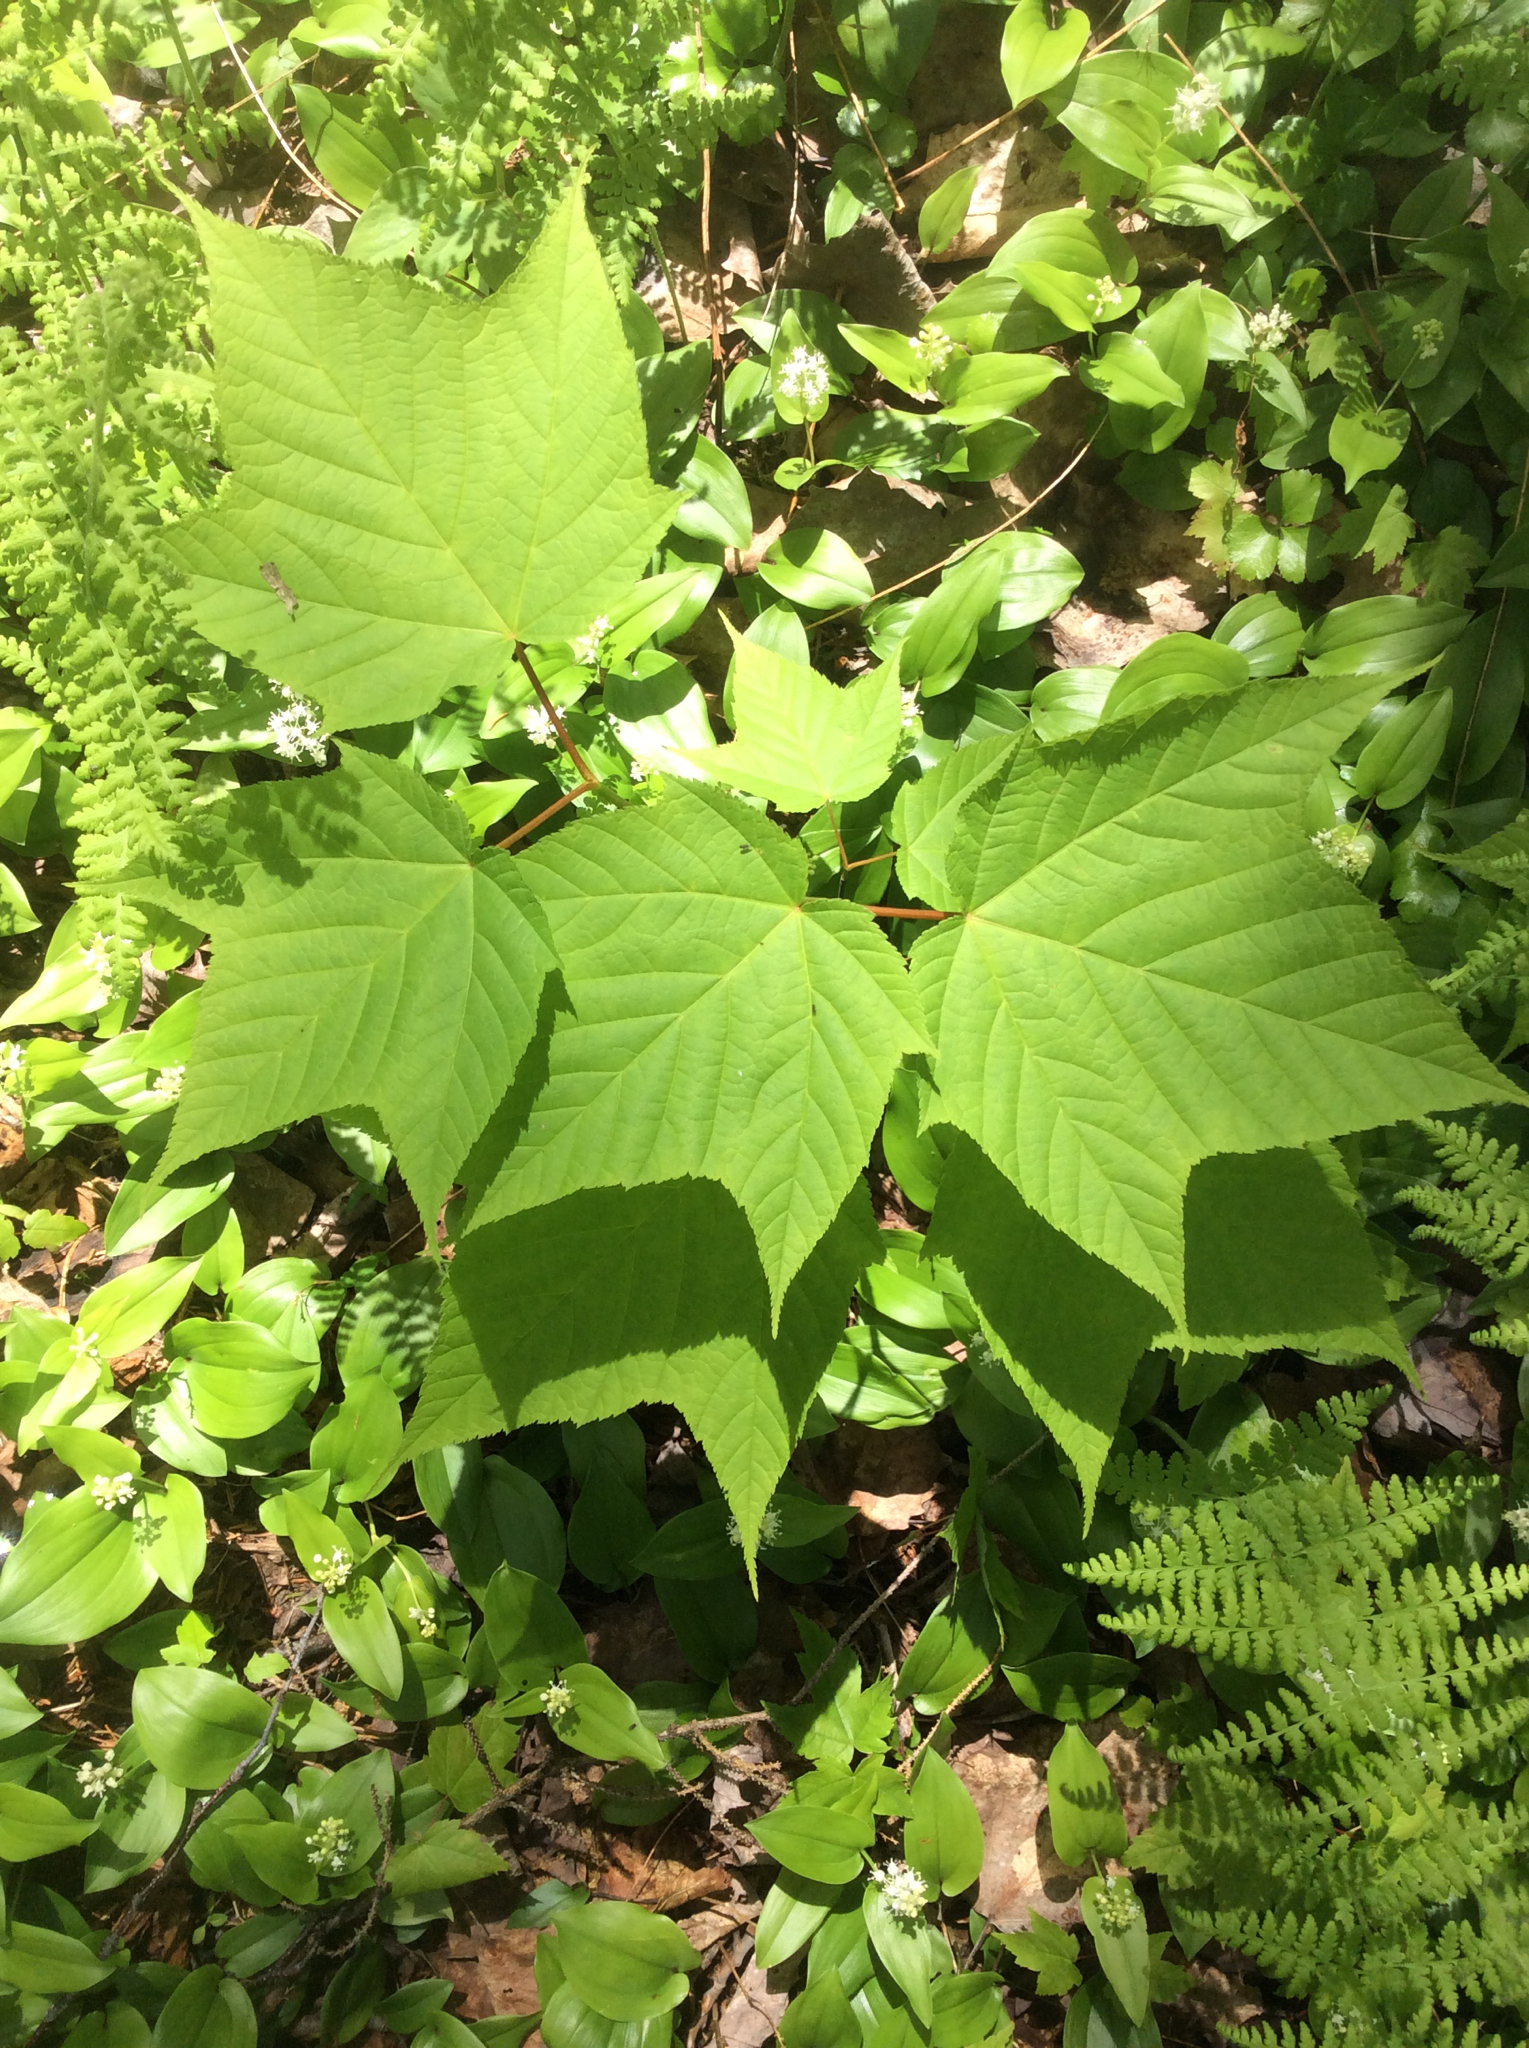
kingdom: Plantae
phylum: Tracheophyta
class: Magnoliopsida
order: Sapindales
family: Sapindaceae
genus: Acer
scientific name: Acer pensylvanicum
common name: Moosewood
